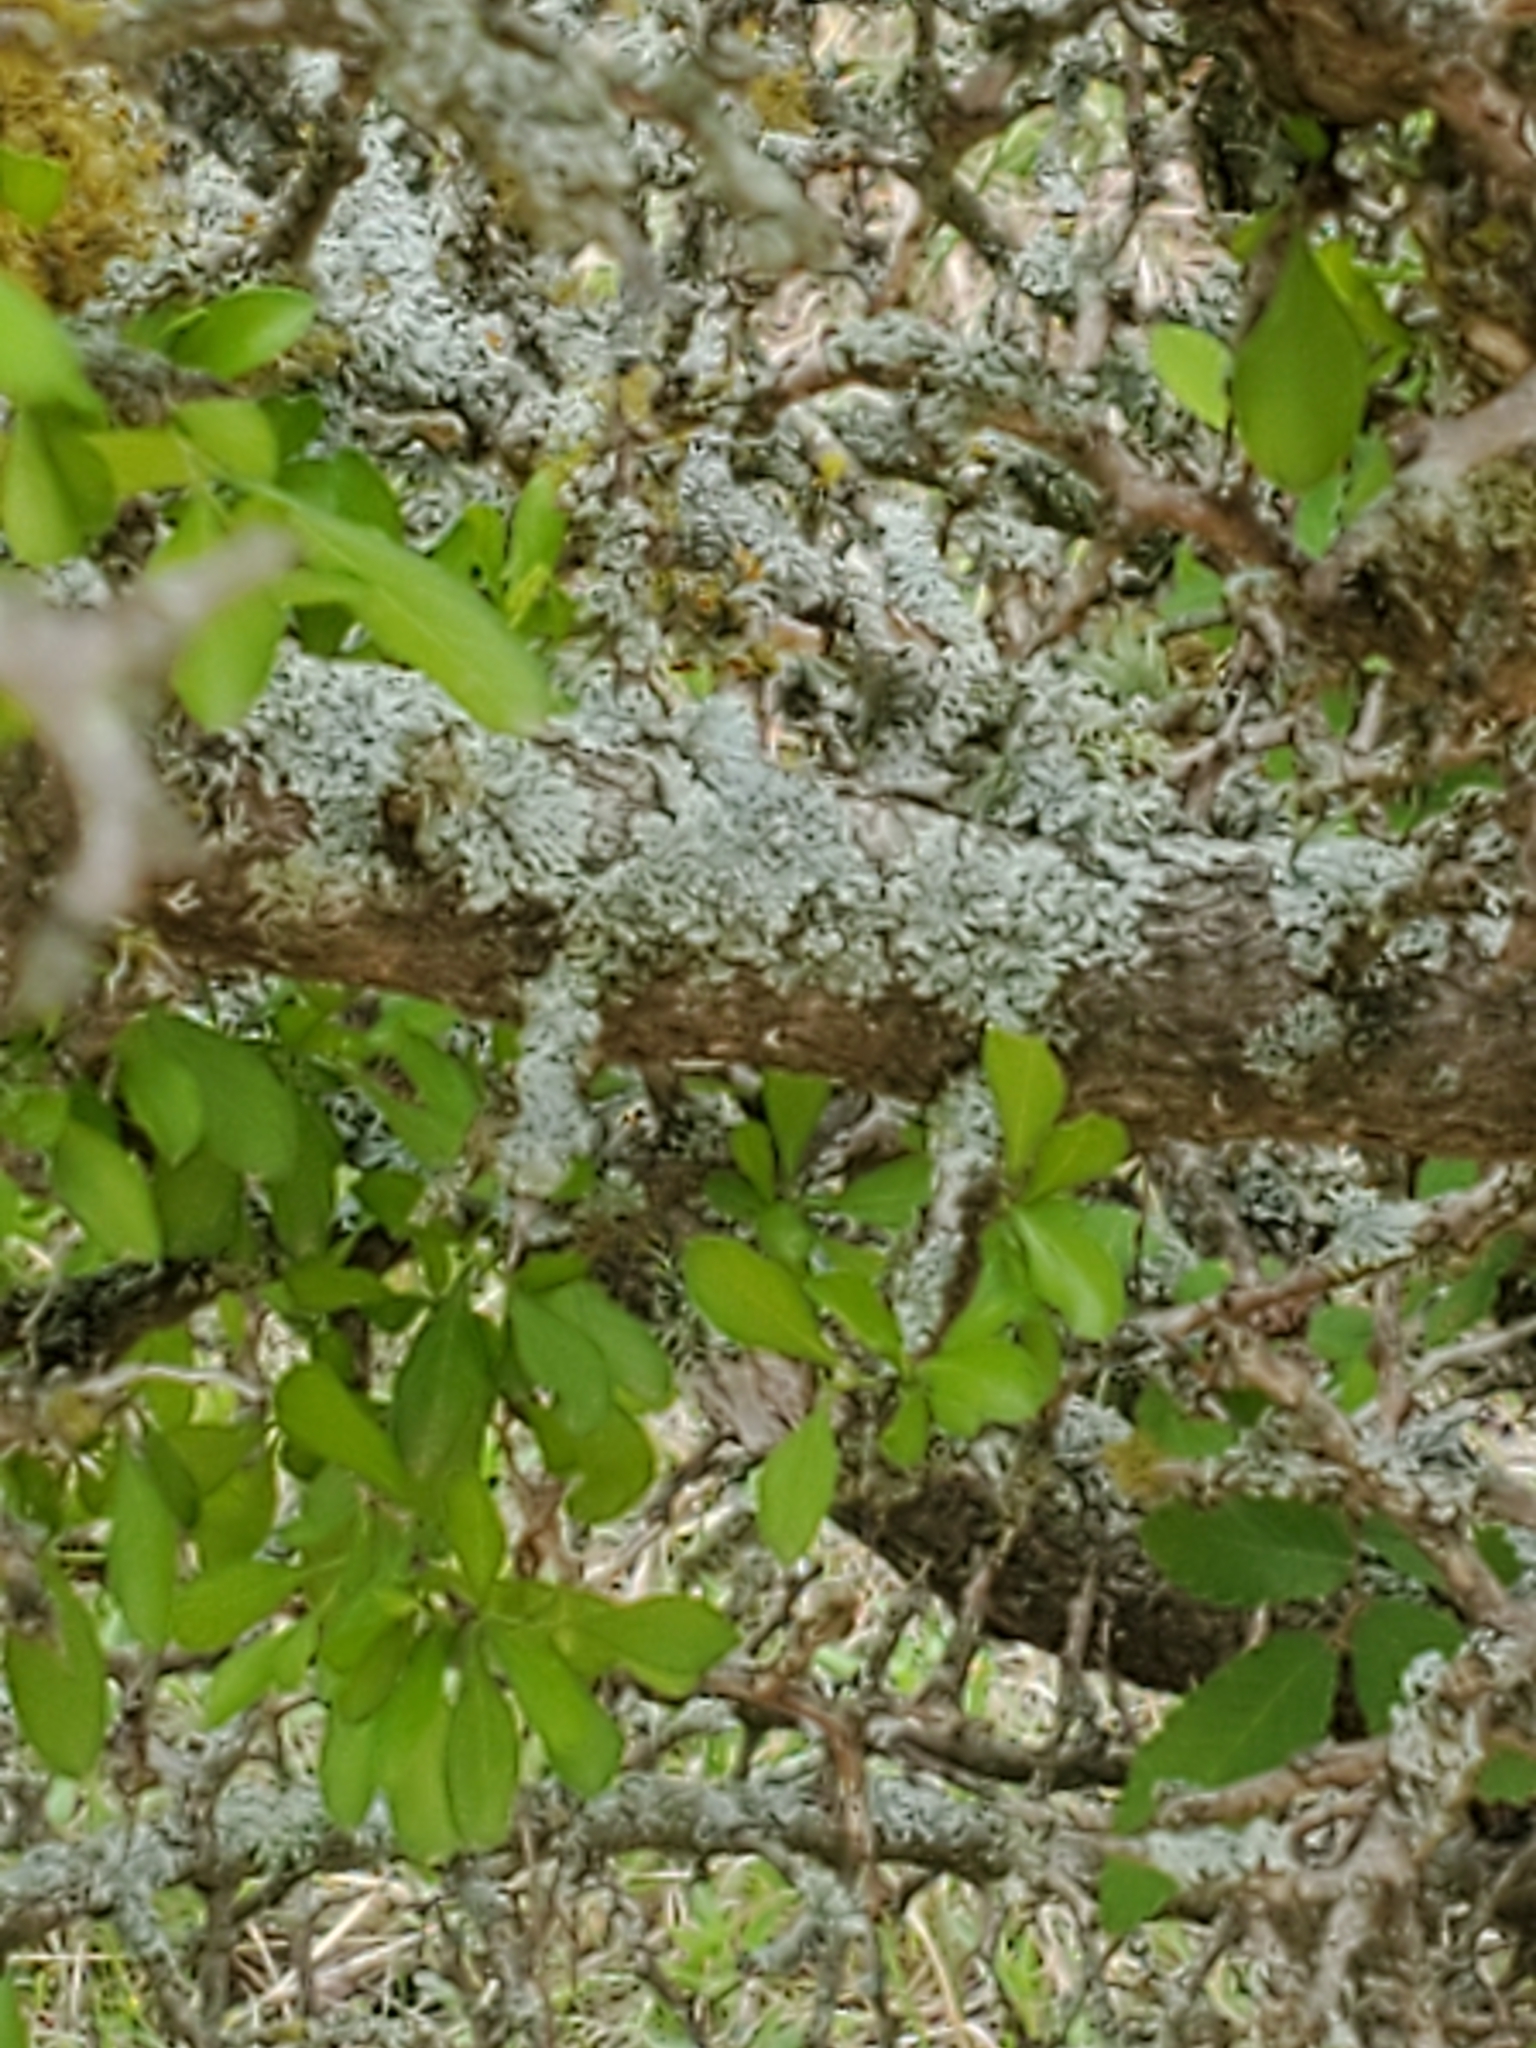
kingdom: Plantae
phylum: Tracheophyta
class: Magnoliopsida
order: Rosales
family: Rhamnaceae
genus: Condalia
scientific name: Condalia hookeri
